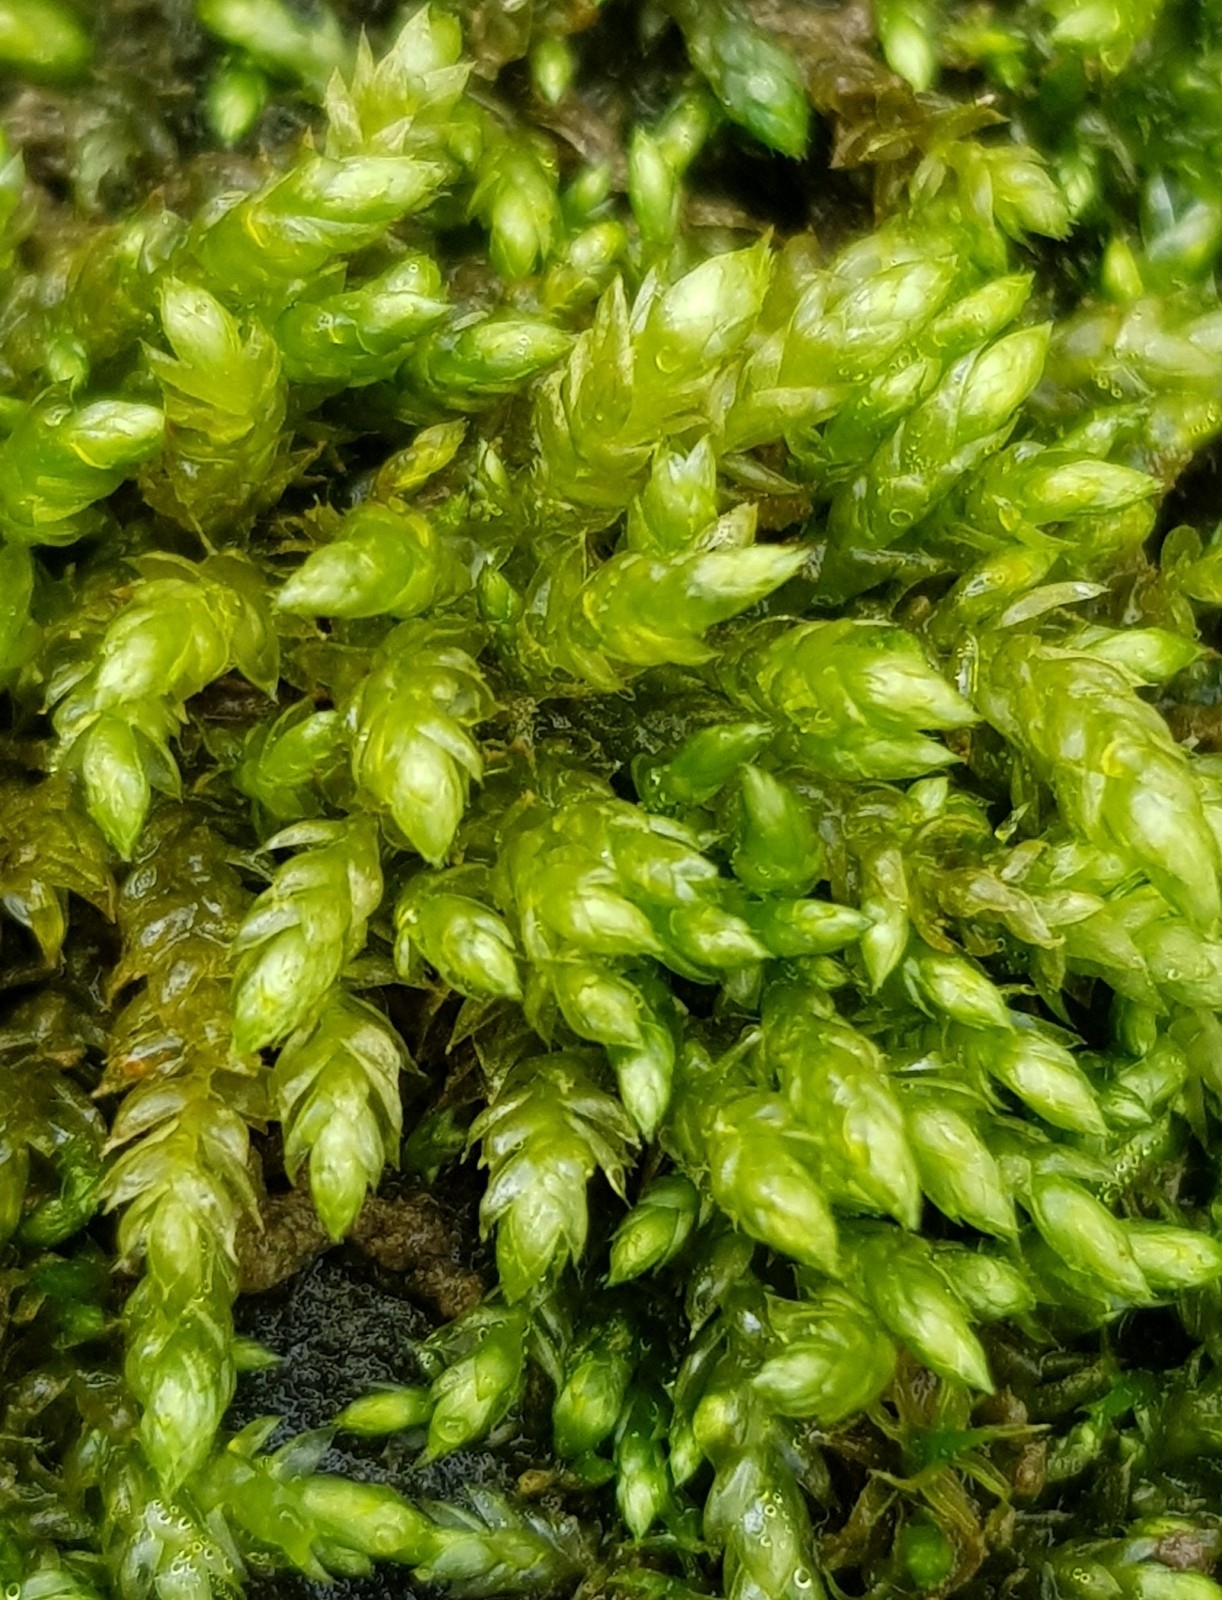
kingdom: Plantae
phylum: Bryophyta
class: Bryopsida
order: Hypnales
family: Brachytheciaceae
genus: Brachythecium
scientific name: Brachythecium rivulare
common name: River ragged moss
